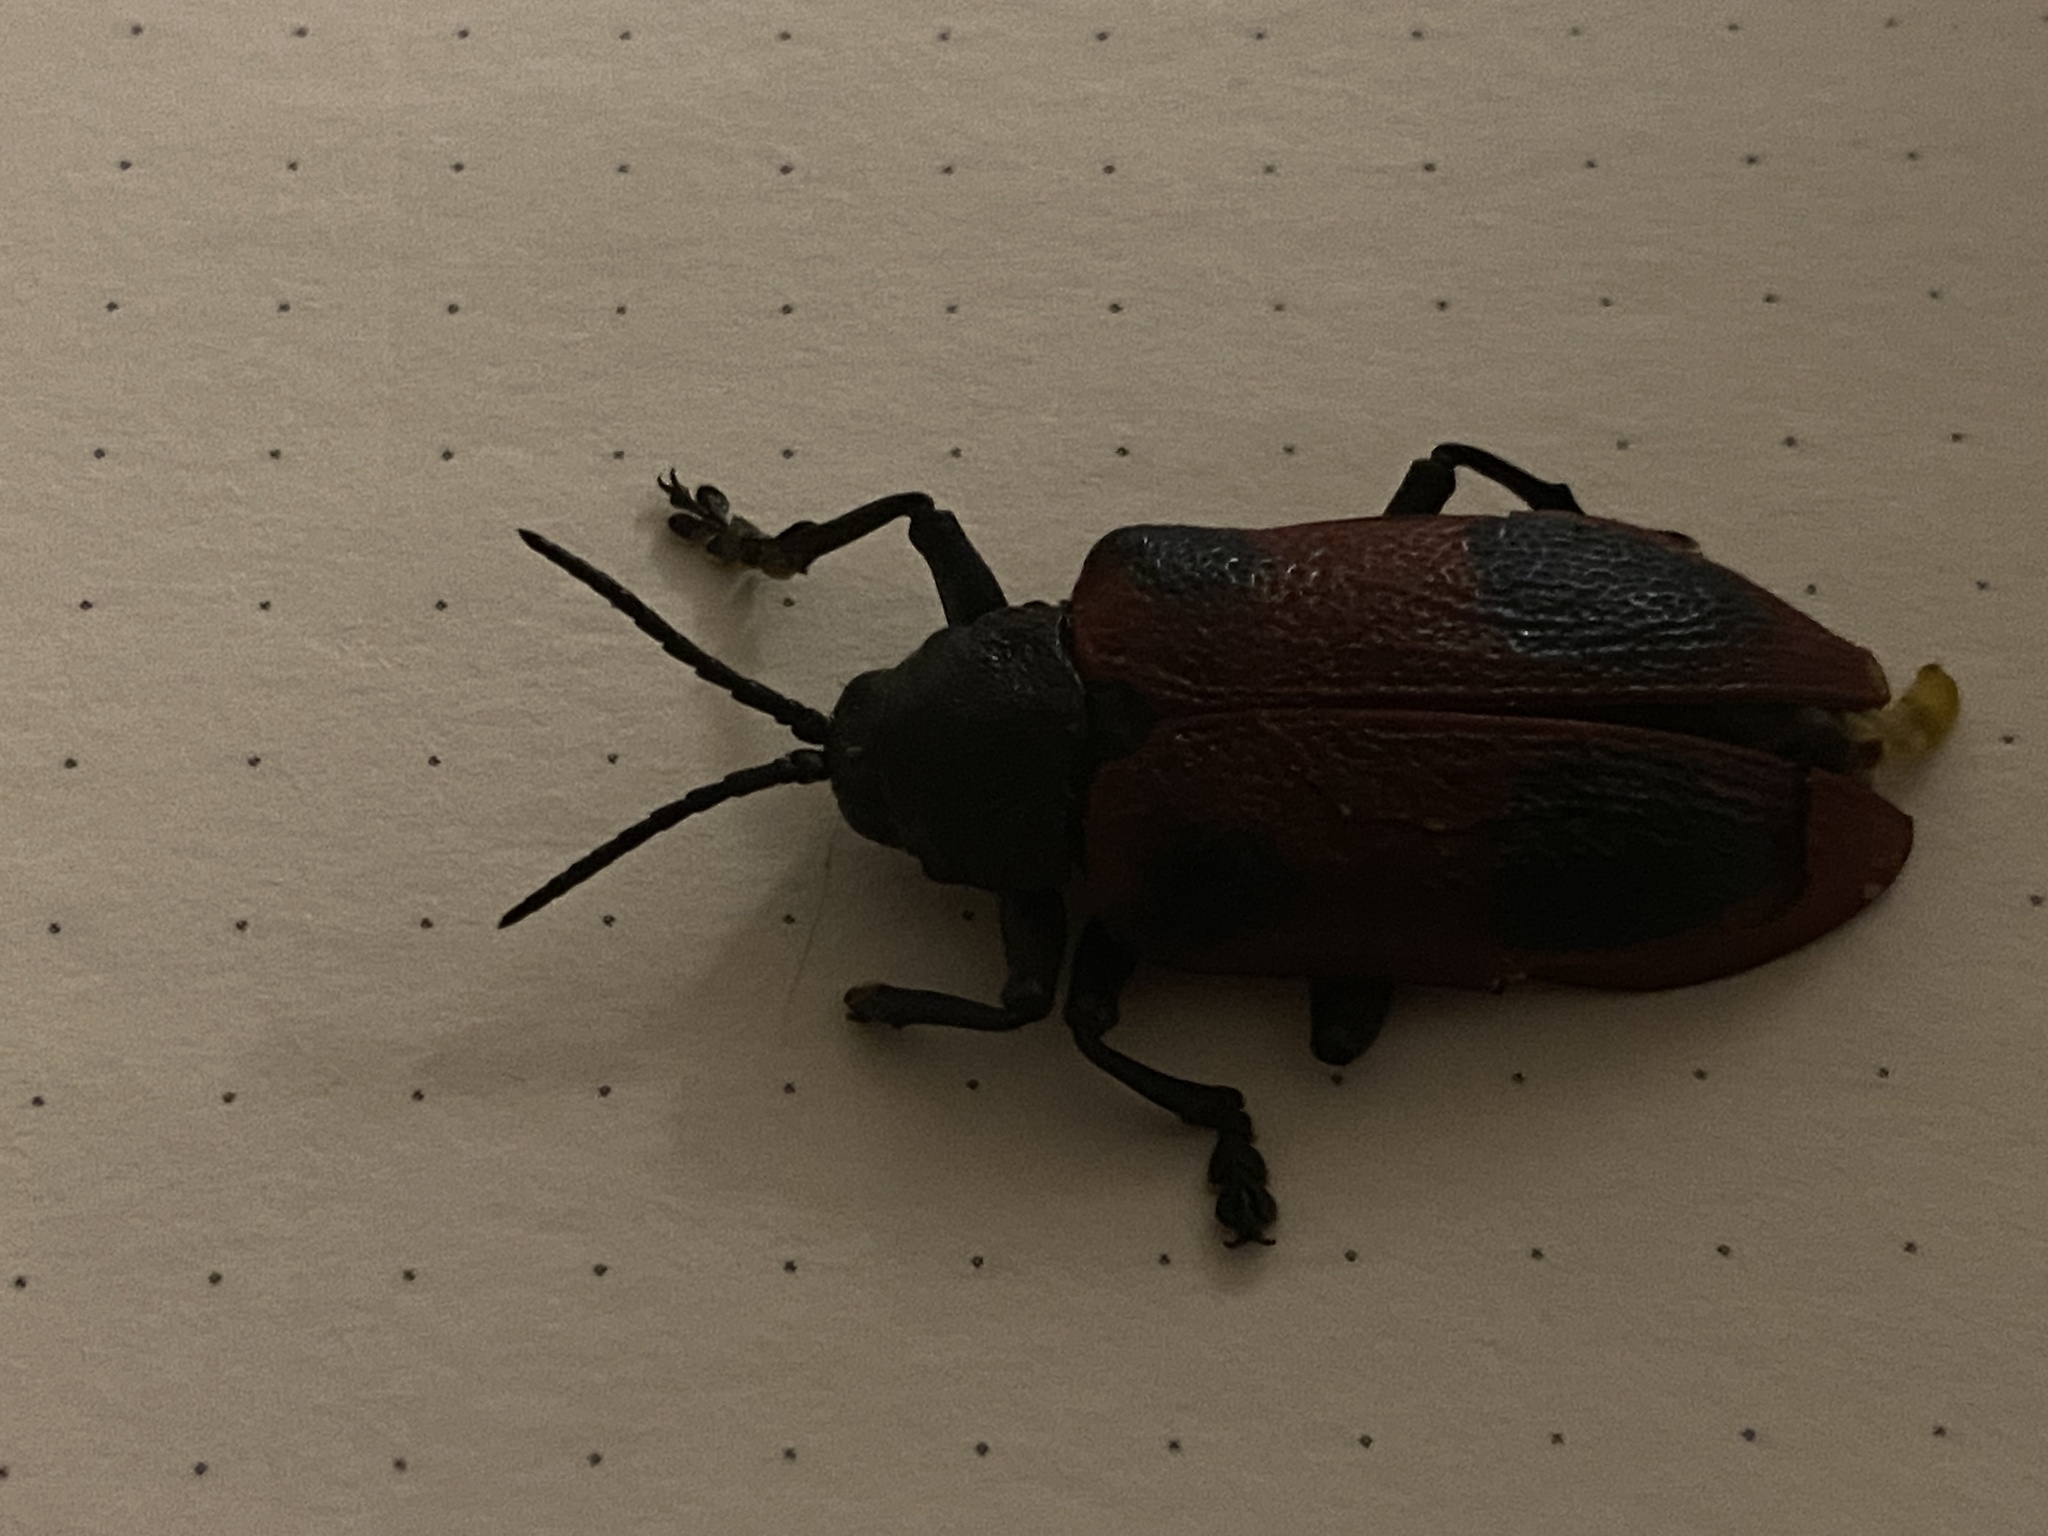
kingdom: Animalia
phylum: Arthropoda
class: Insecta
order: Coleoptera
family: Chrysomelidae
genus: Coraliomela
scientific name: Coraliomela quadrimaculata
